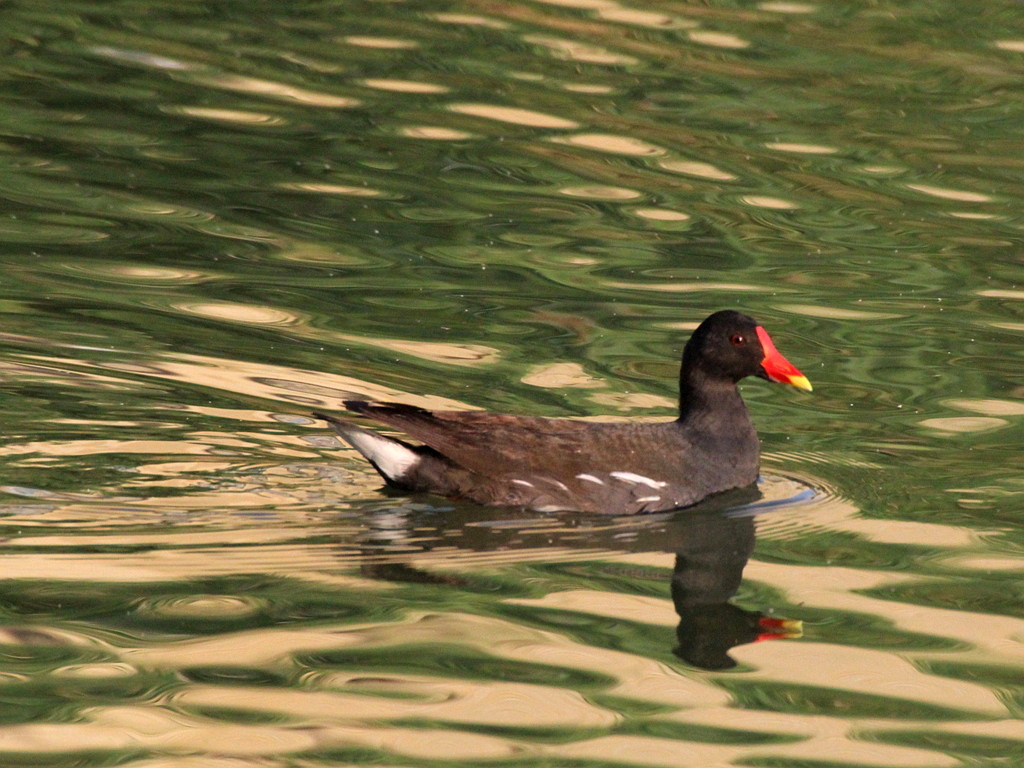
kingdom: Animalia
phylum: Chordata
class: Aves
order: Gruiformes
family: Rallidae
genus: Gallinula
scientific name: Gallinula chloropus
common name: Common moorhen
